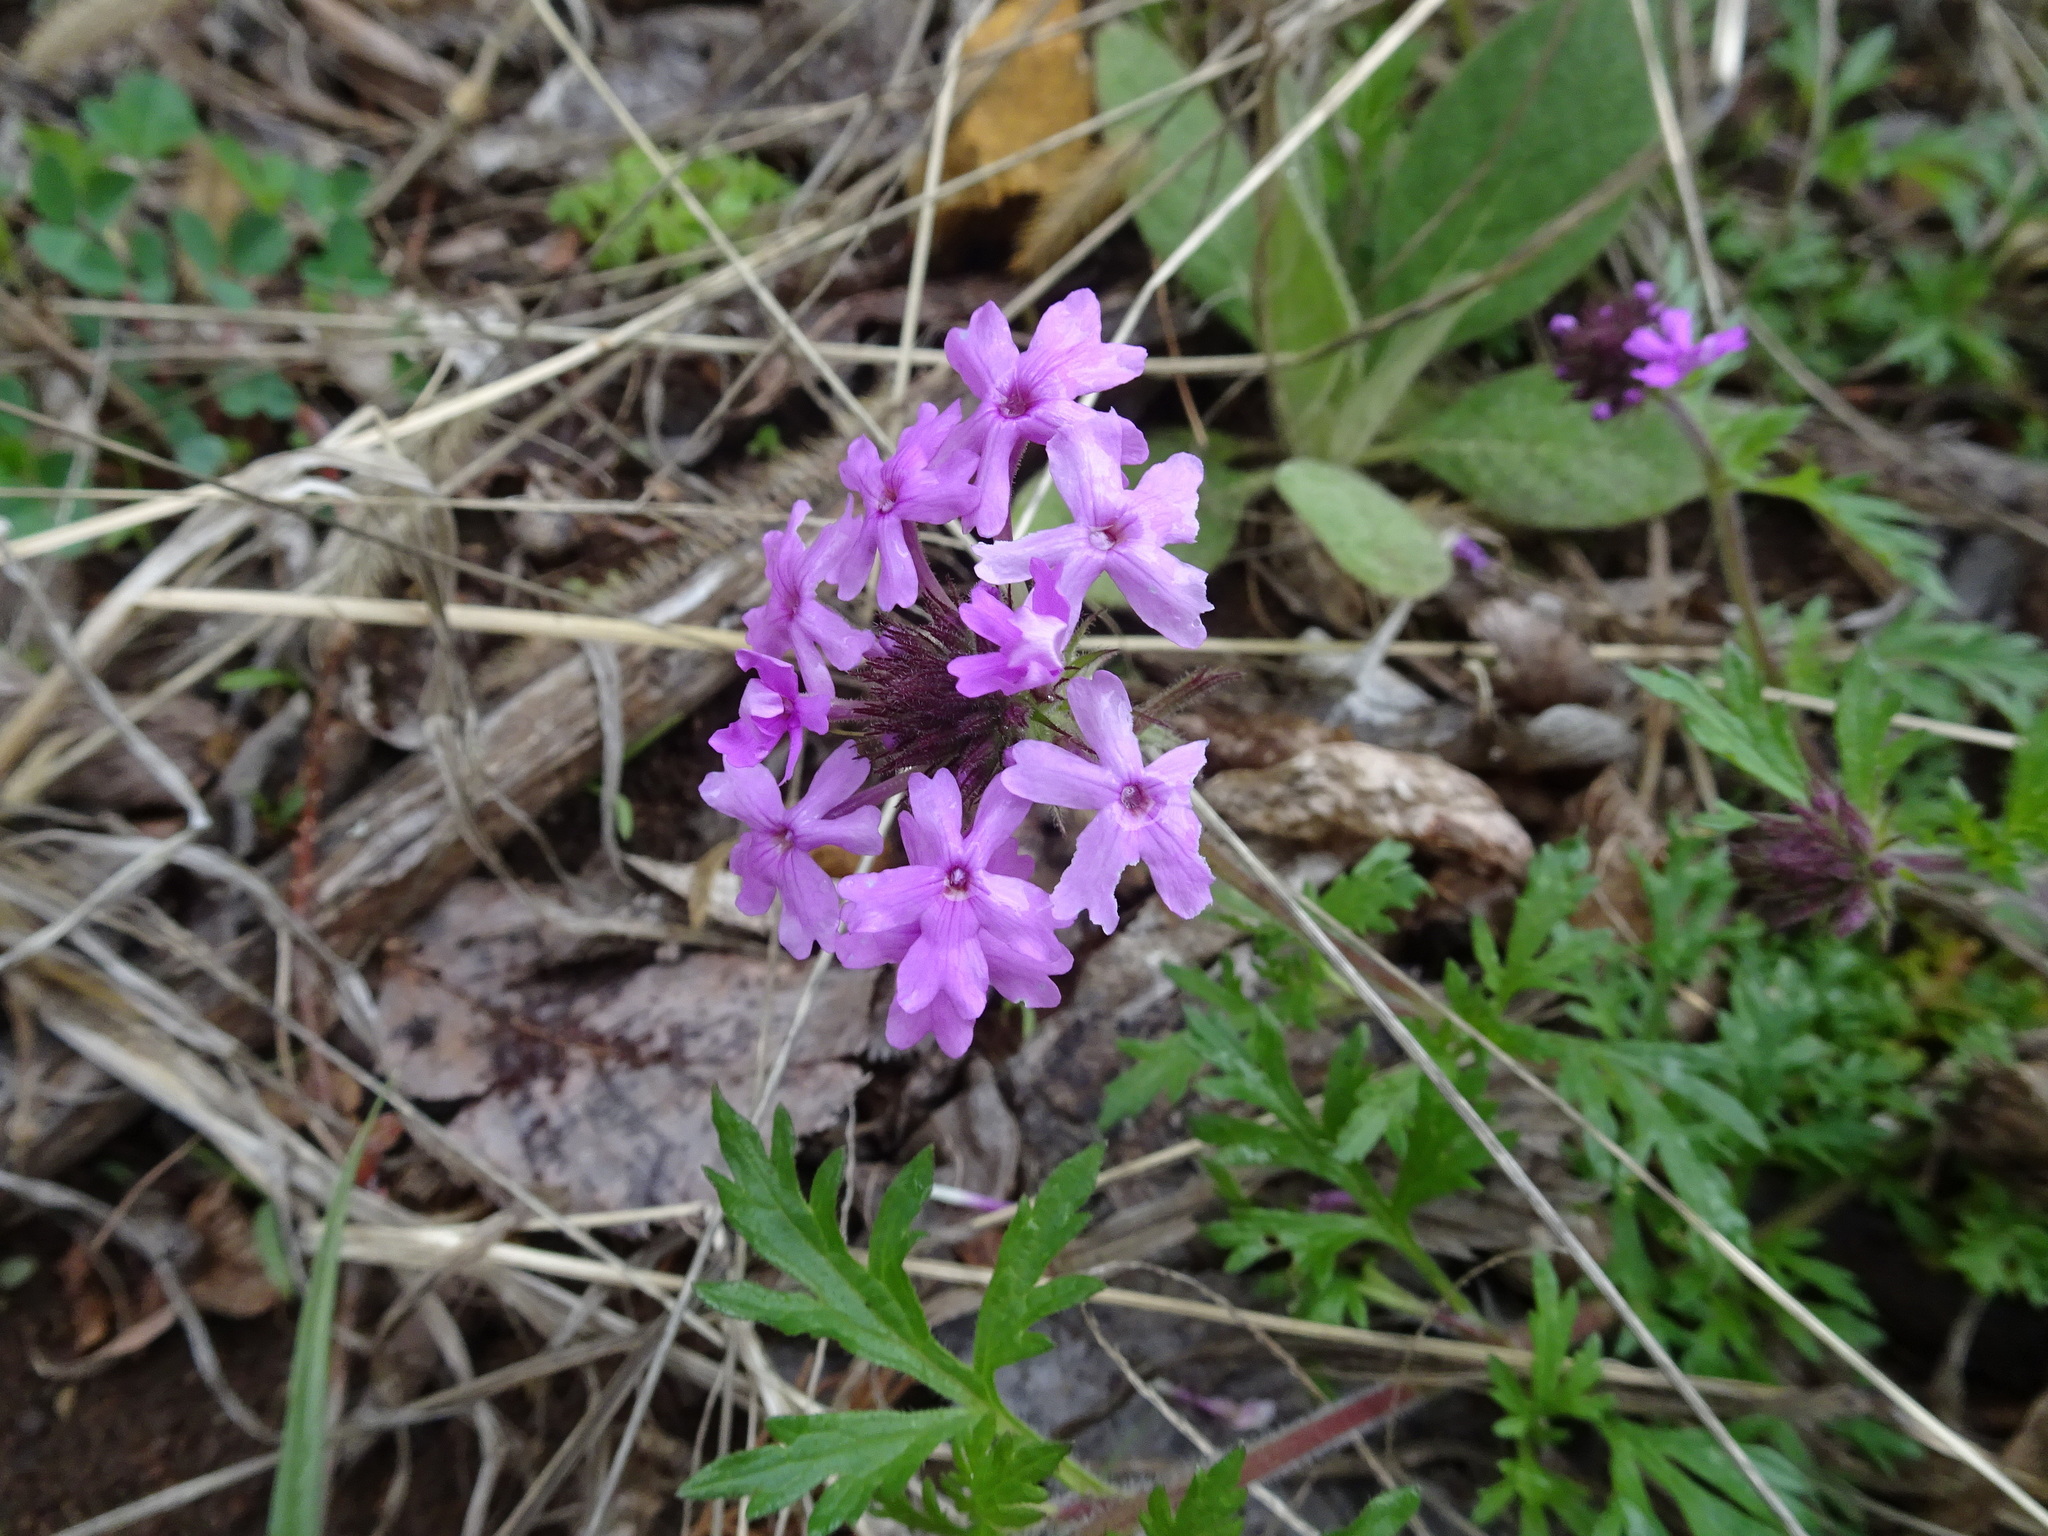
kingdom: Plantae
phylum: Tracheophyta
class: Magnoliopsida
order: Lamiales
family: Verbenaceae
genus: Verbena
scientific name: Verbena canadensis
